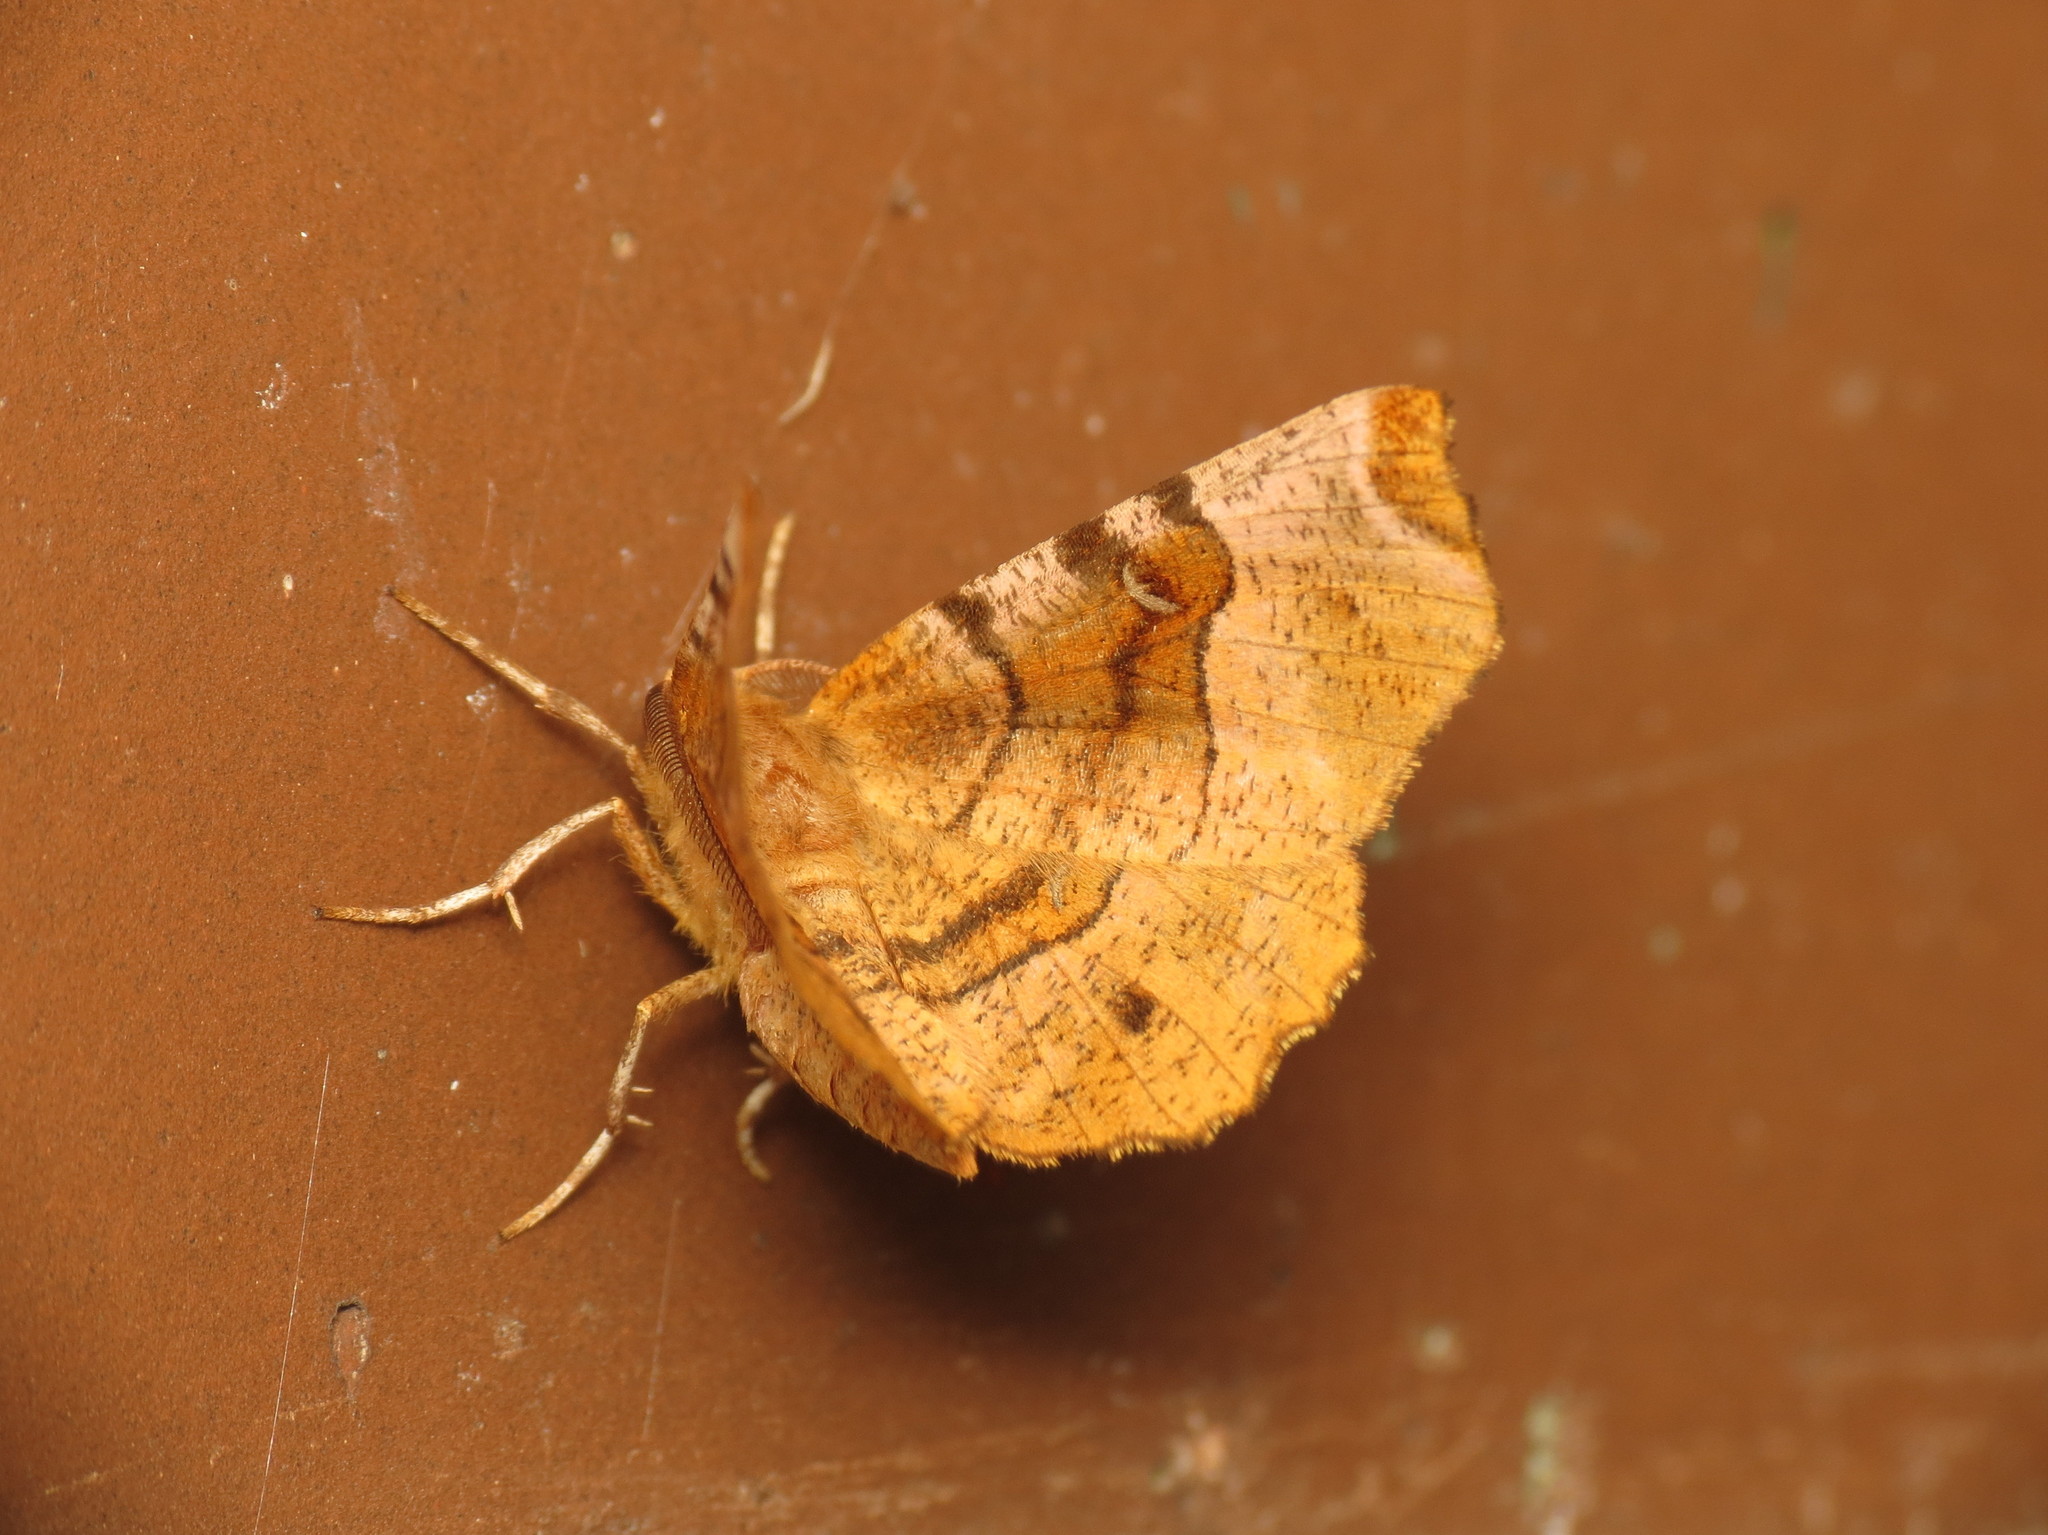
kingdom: Animalia
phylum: Arthropoda
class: Insecta
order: Lepidoptera
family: Geometridae
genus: Selenia
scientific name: Selenia tetralunaria
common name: Purple thorn
